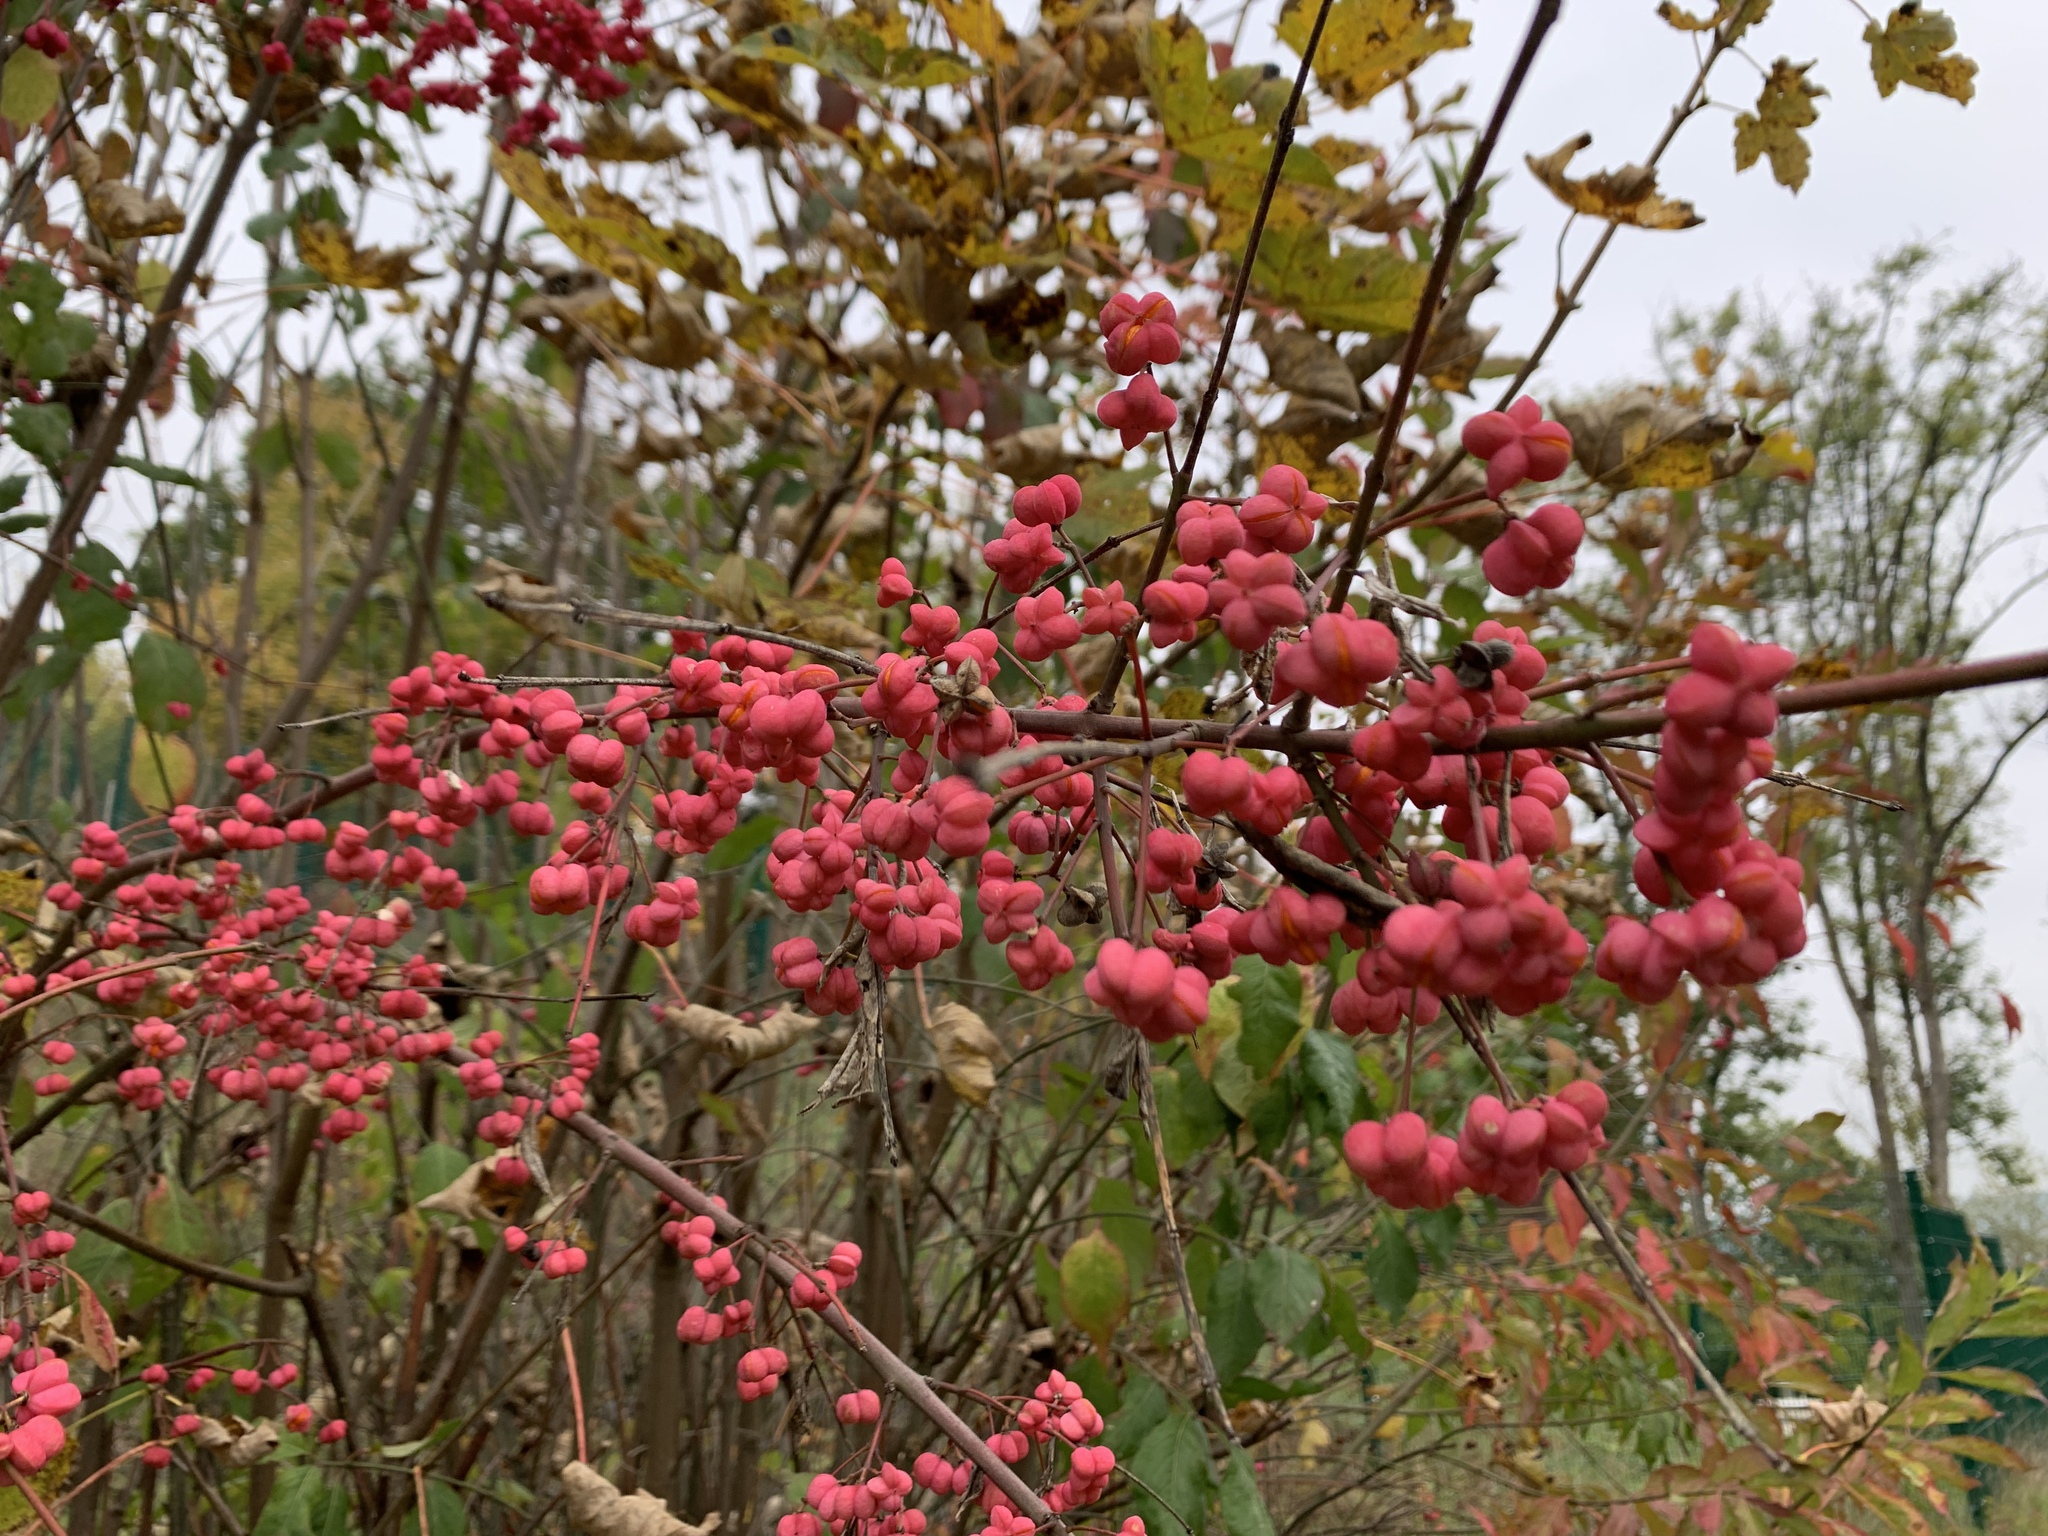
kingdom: Plantae
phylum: Tracheophyta
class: Magnoliopsida
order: Celastrales
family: Celastraceae
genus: Euonymus
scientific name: Euonymus europaeus
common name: Spindle
